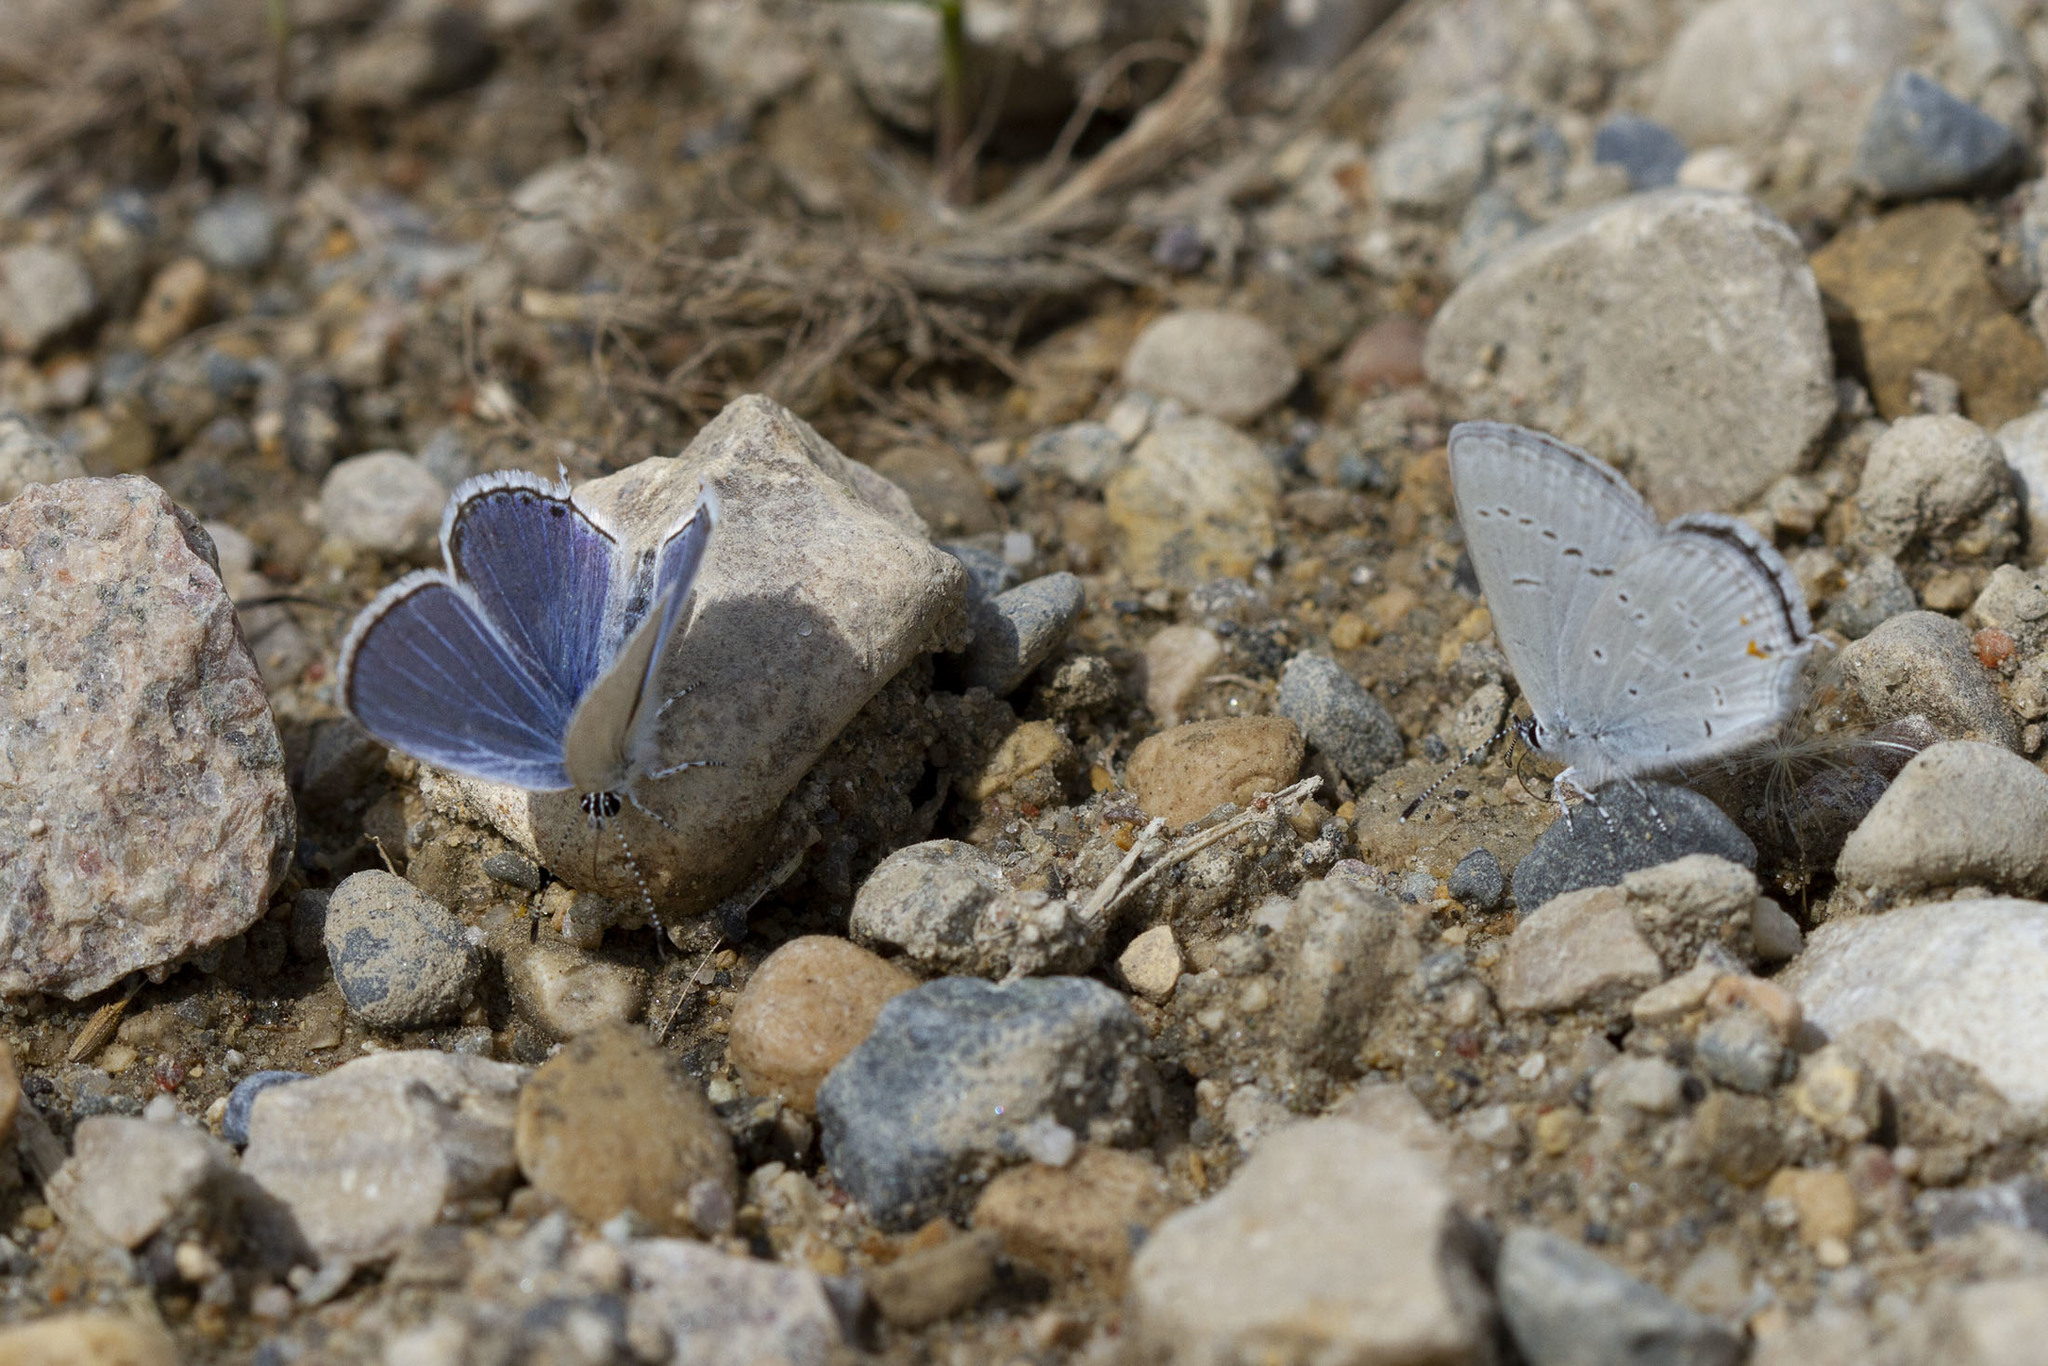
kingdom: Animalia
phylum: Arthropoda
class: Insecta
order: Lepidoptera
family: Lycaenidae
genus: Elkalyce
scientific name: Elkalyce amyntula
